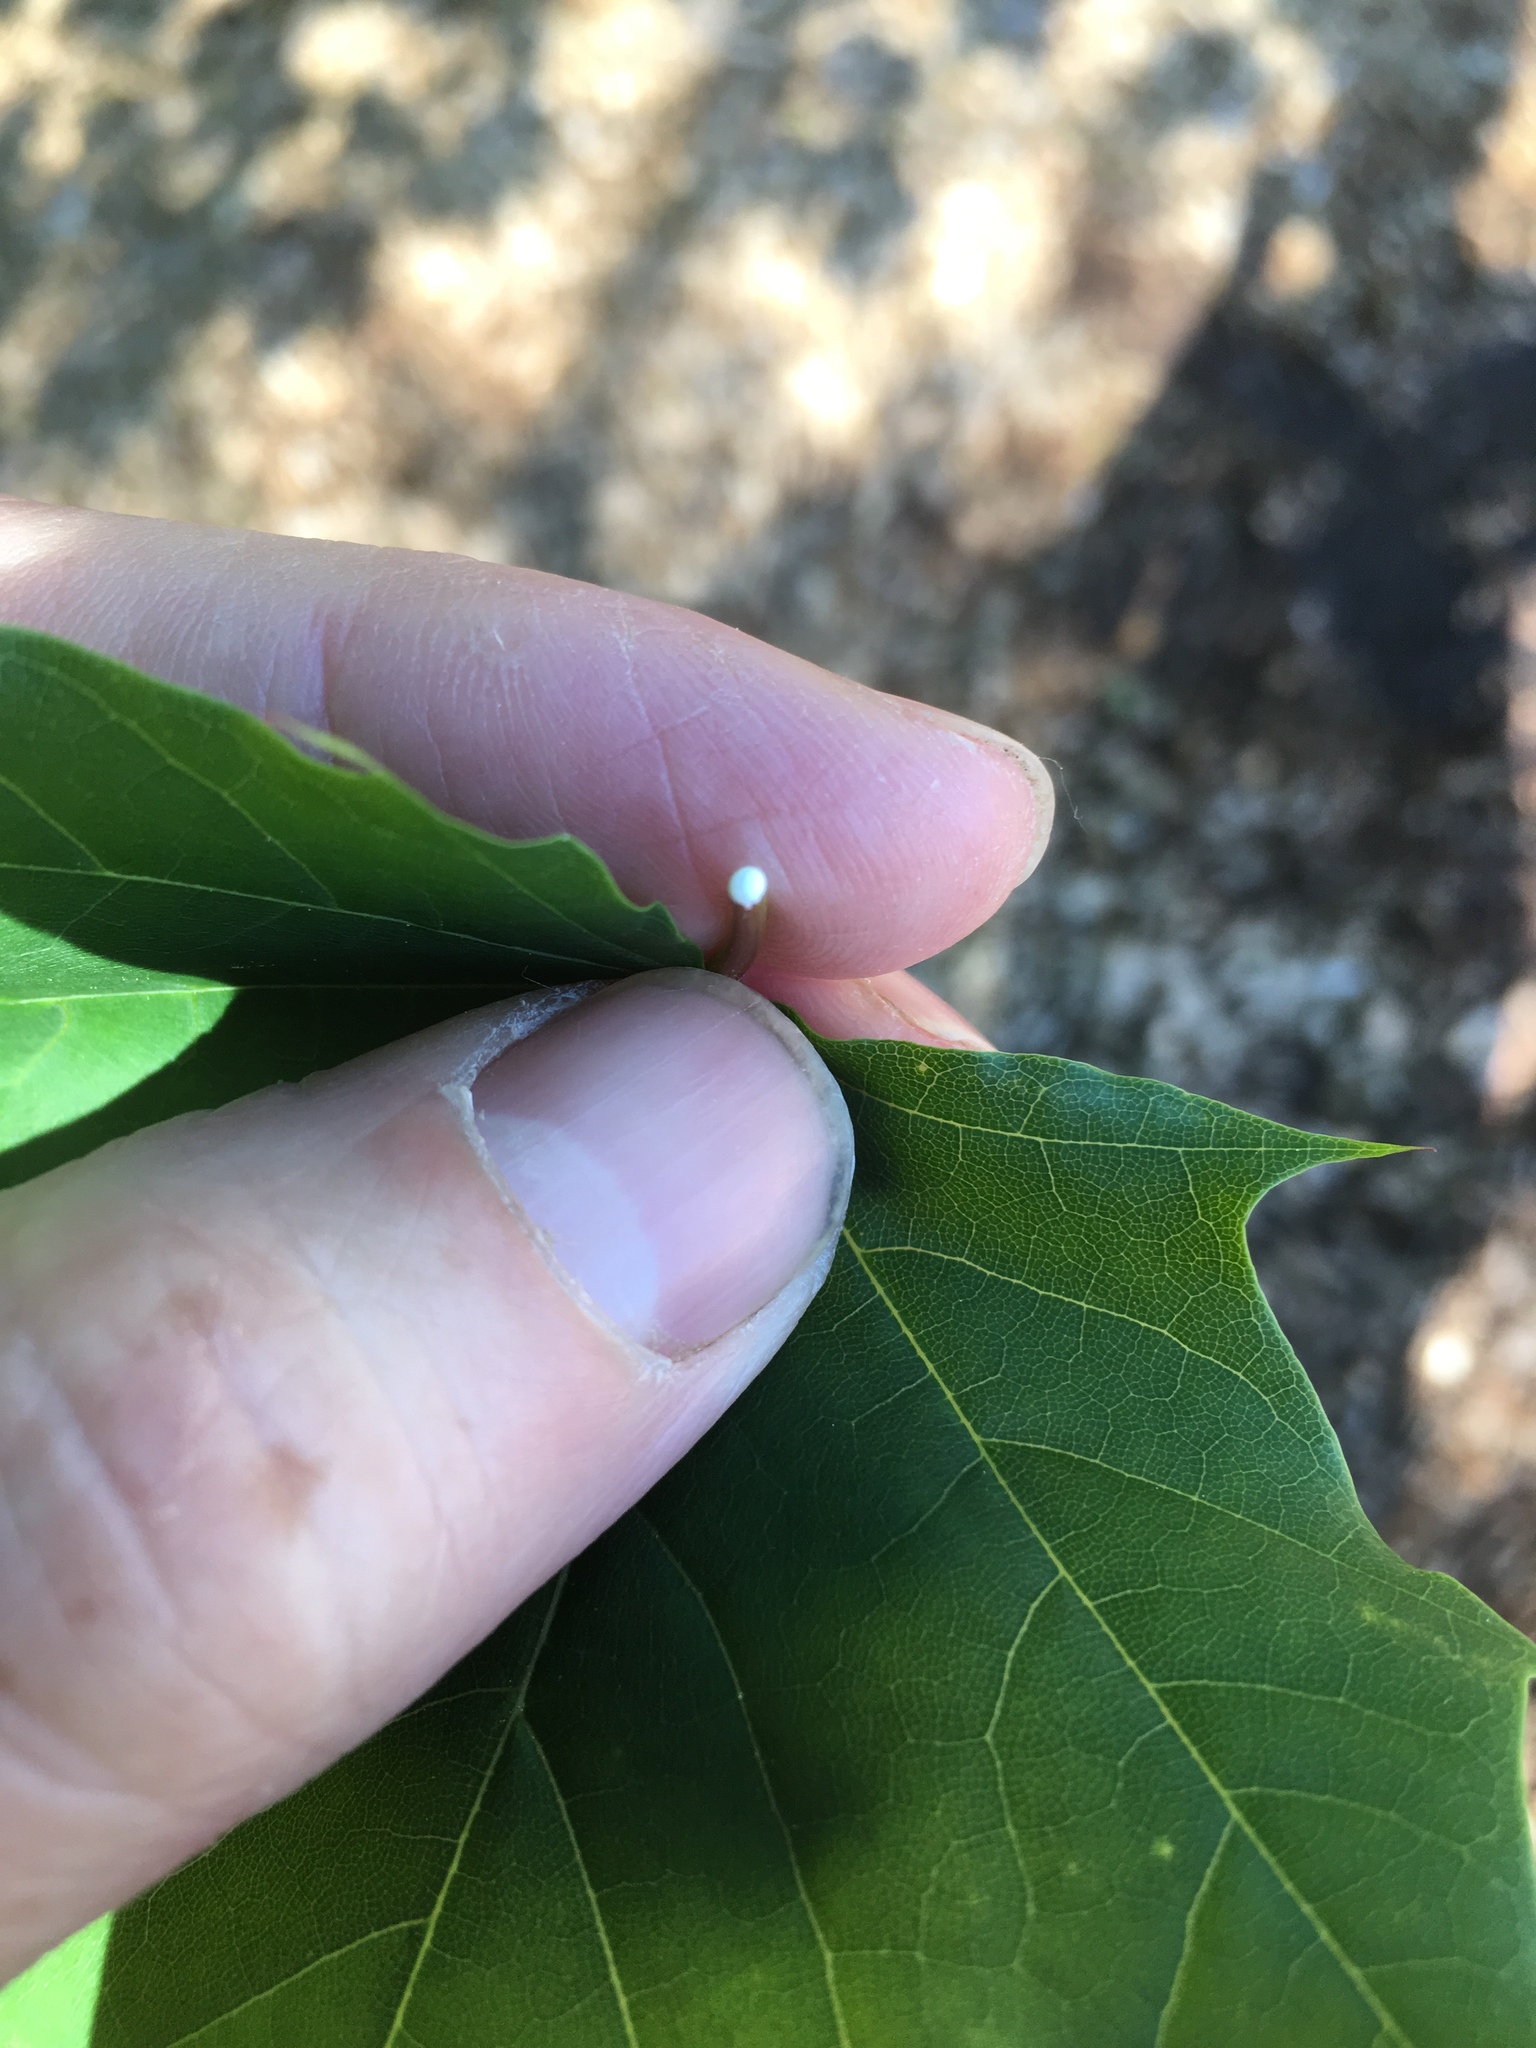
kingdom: Plantae
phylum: Tracheophyta
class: Magnoliopsida
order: Sapindales
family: Sapindaceae
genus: Acer
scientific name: Acer platanoides
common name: Norway maple
